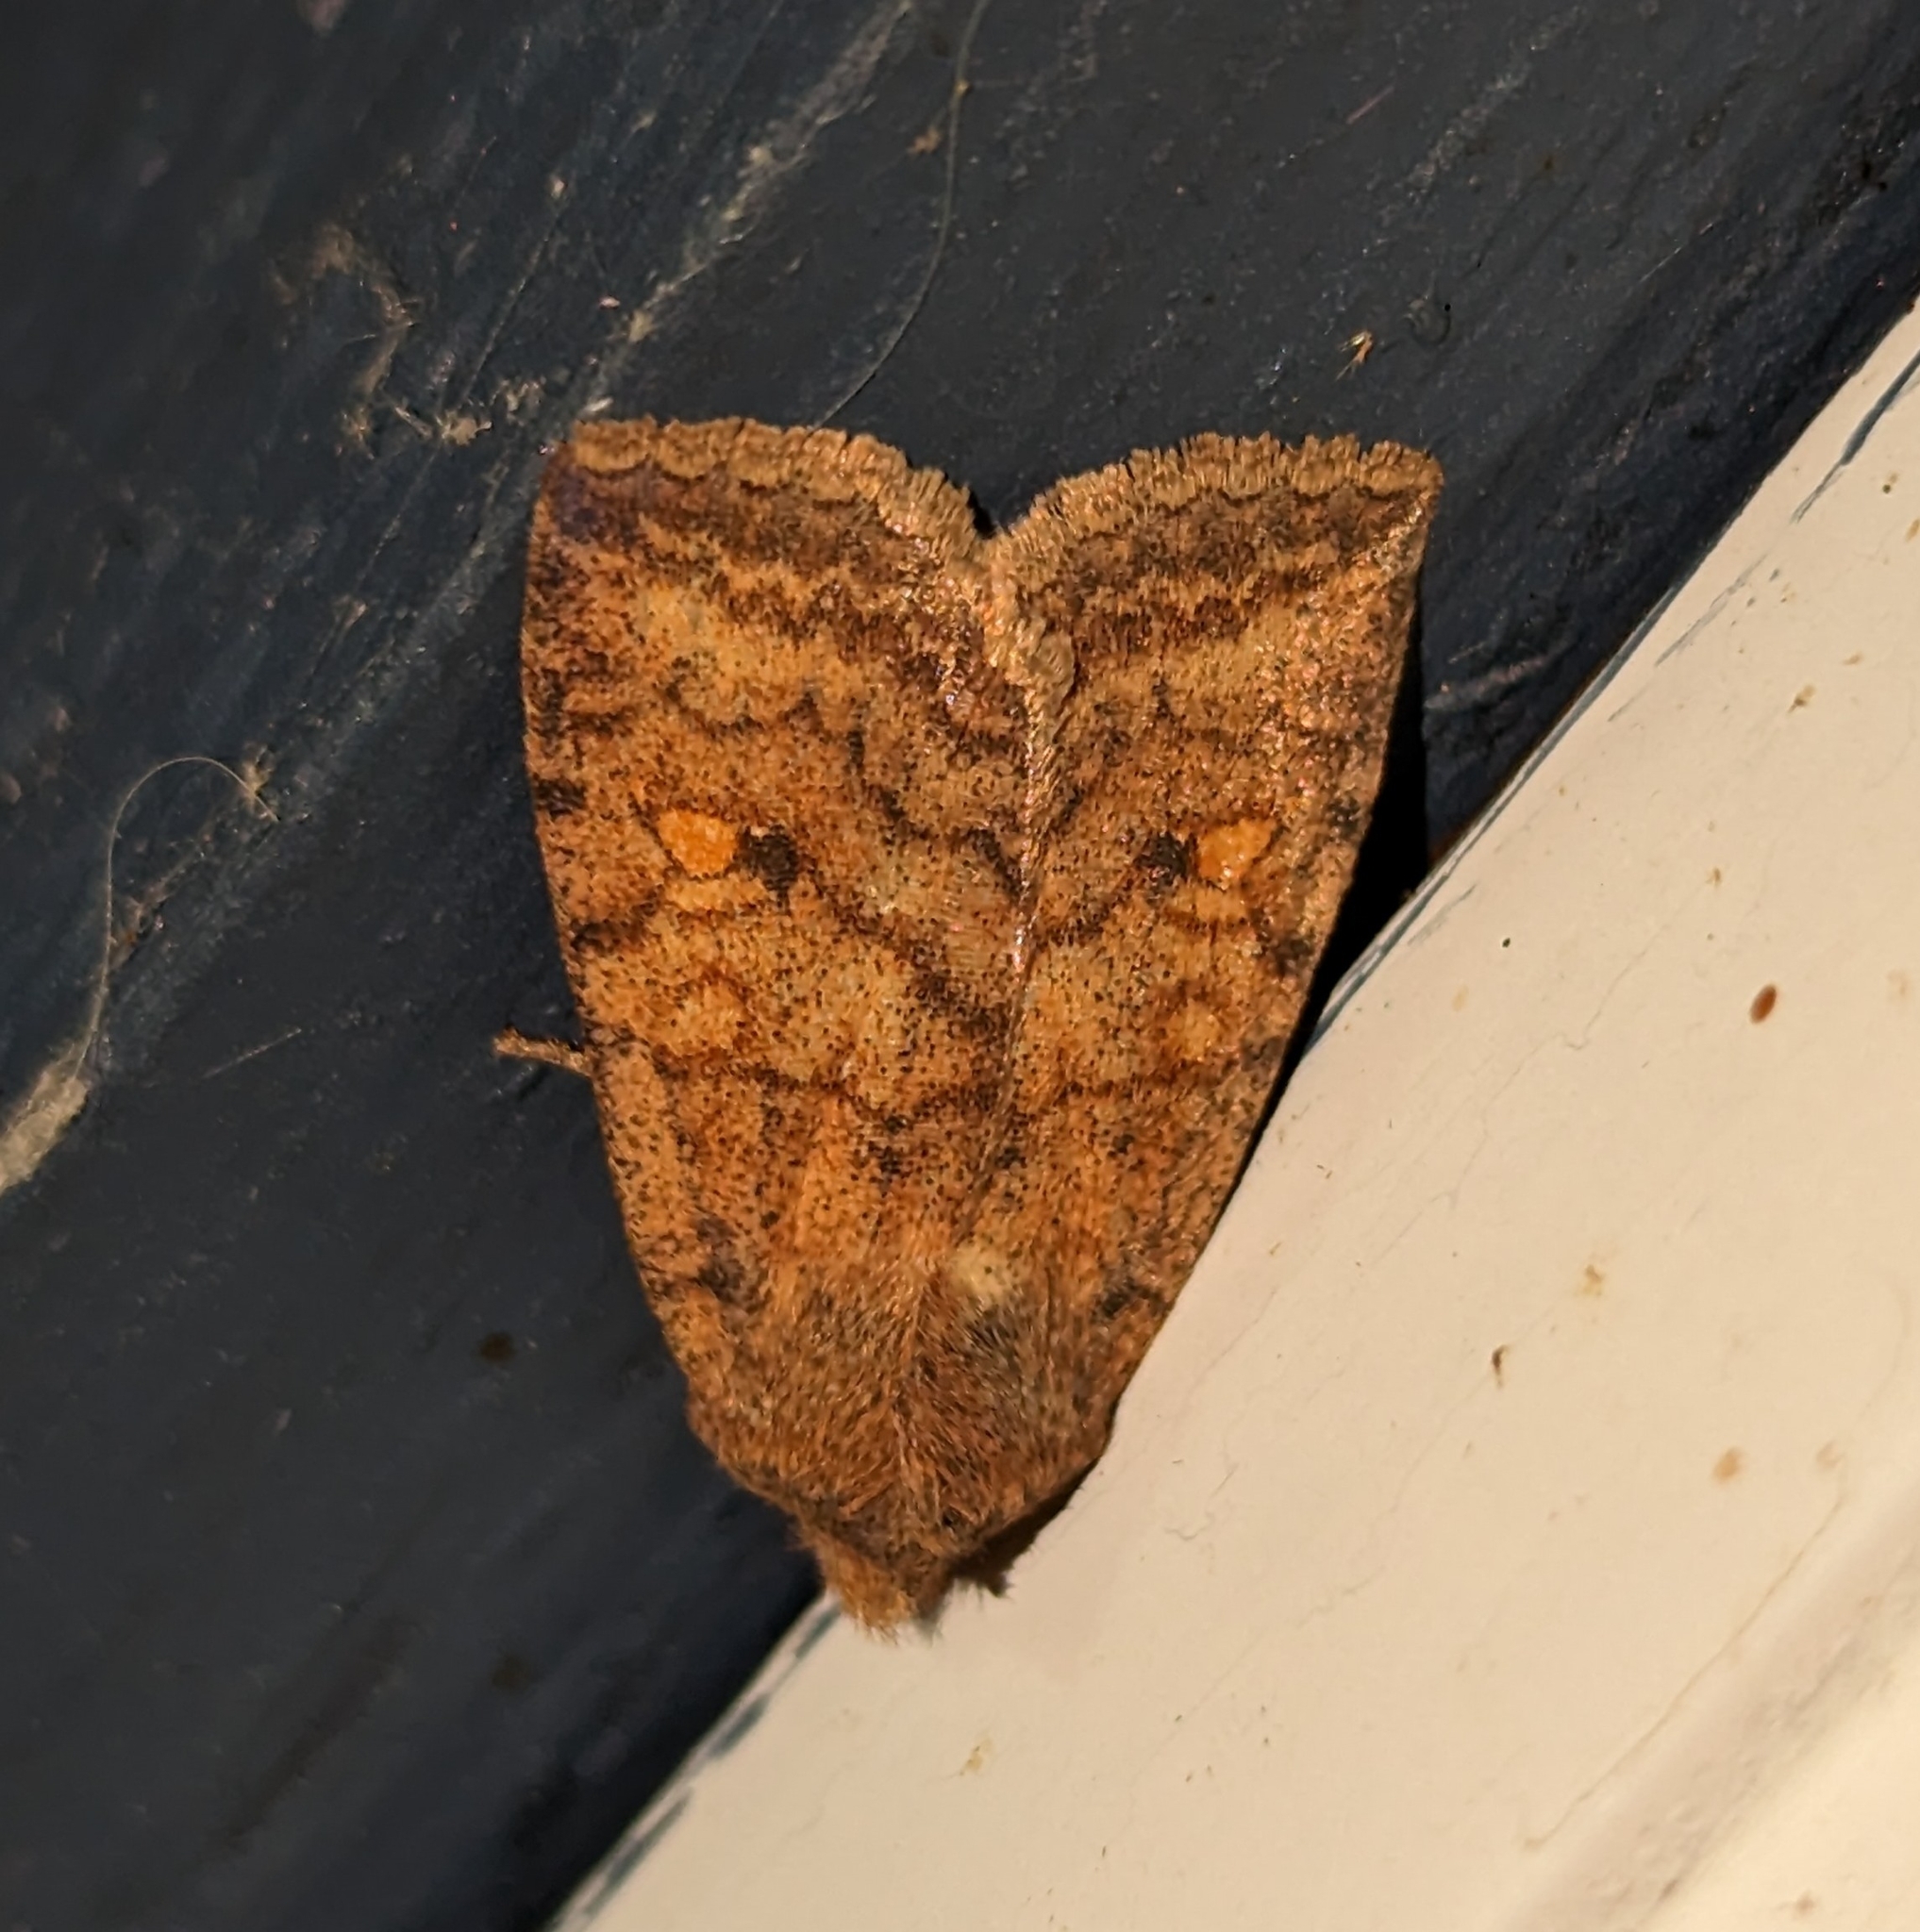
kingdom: Animalia
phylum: Arthropoda
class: Insecta
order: Lepidoptera
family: Noctuidae
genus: Eupsilia
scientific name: Eupsilia tristigmata
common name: Three-spotted sallow
